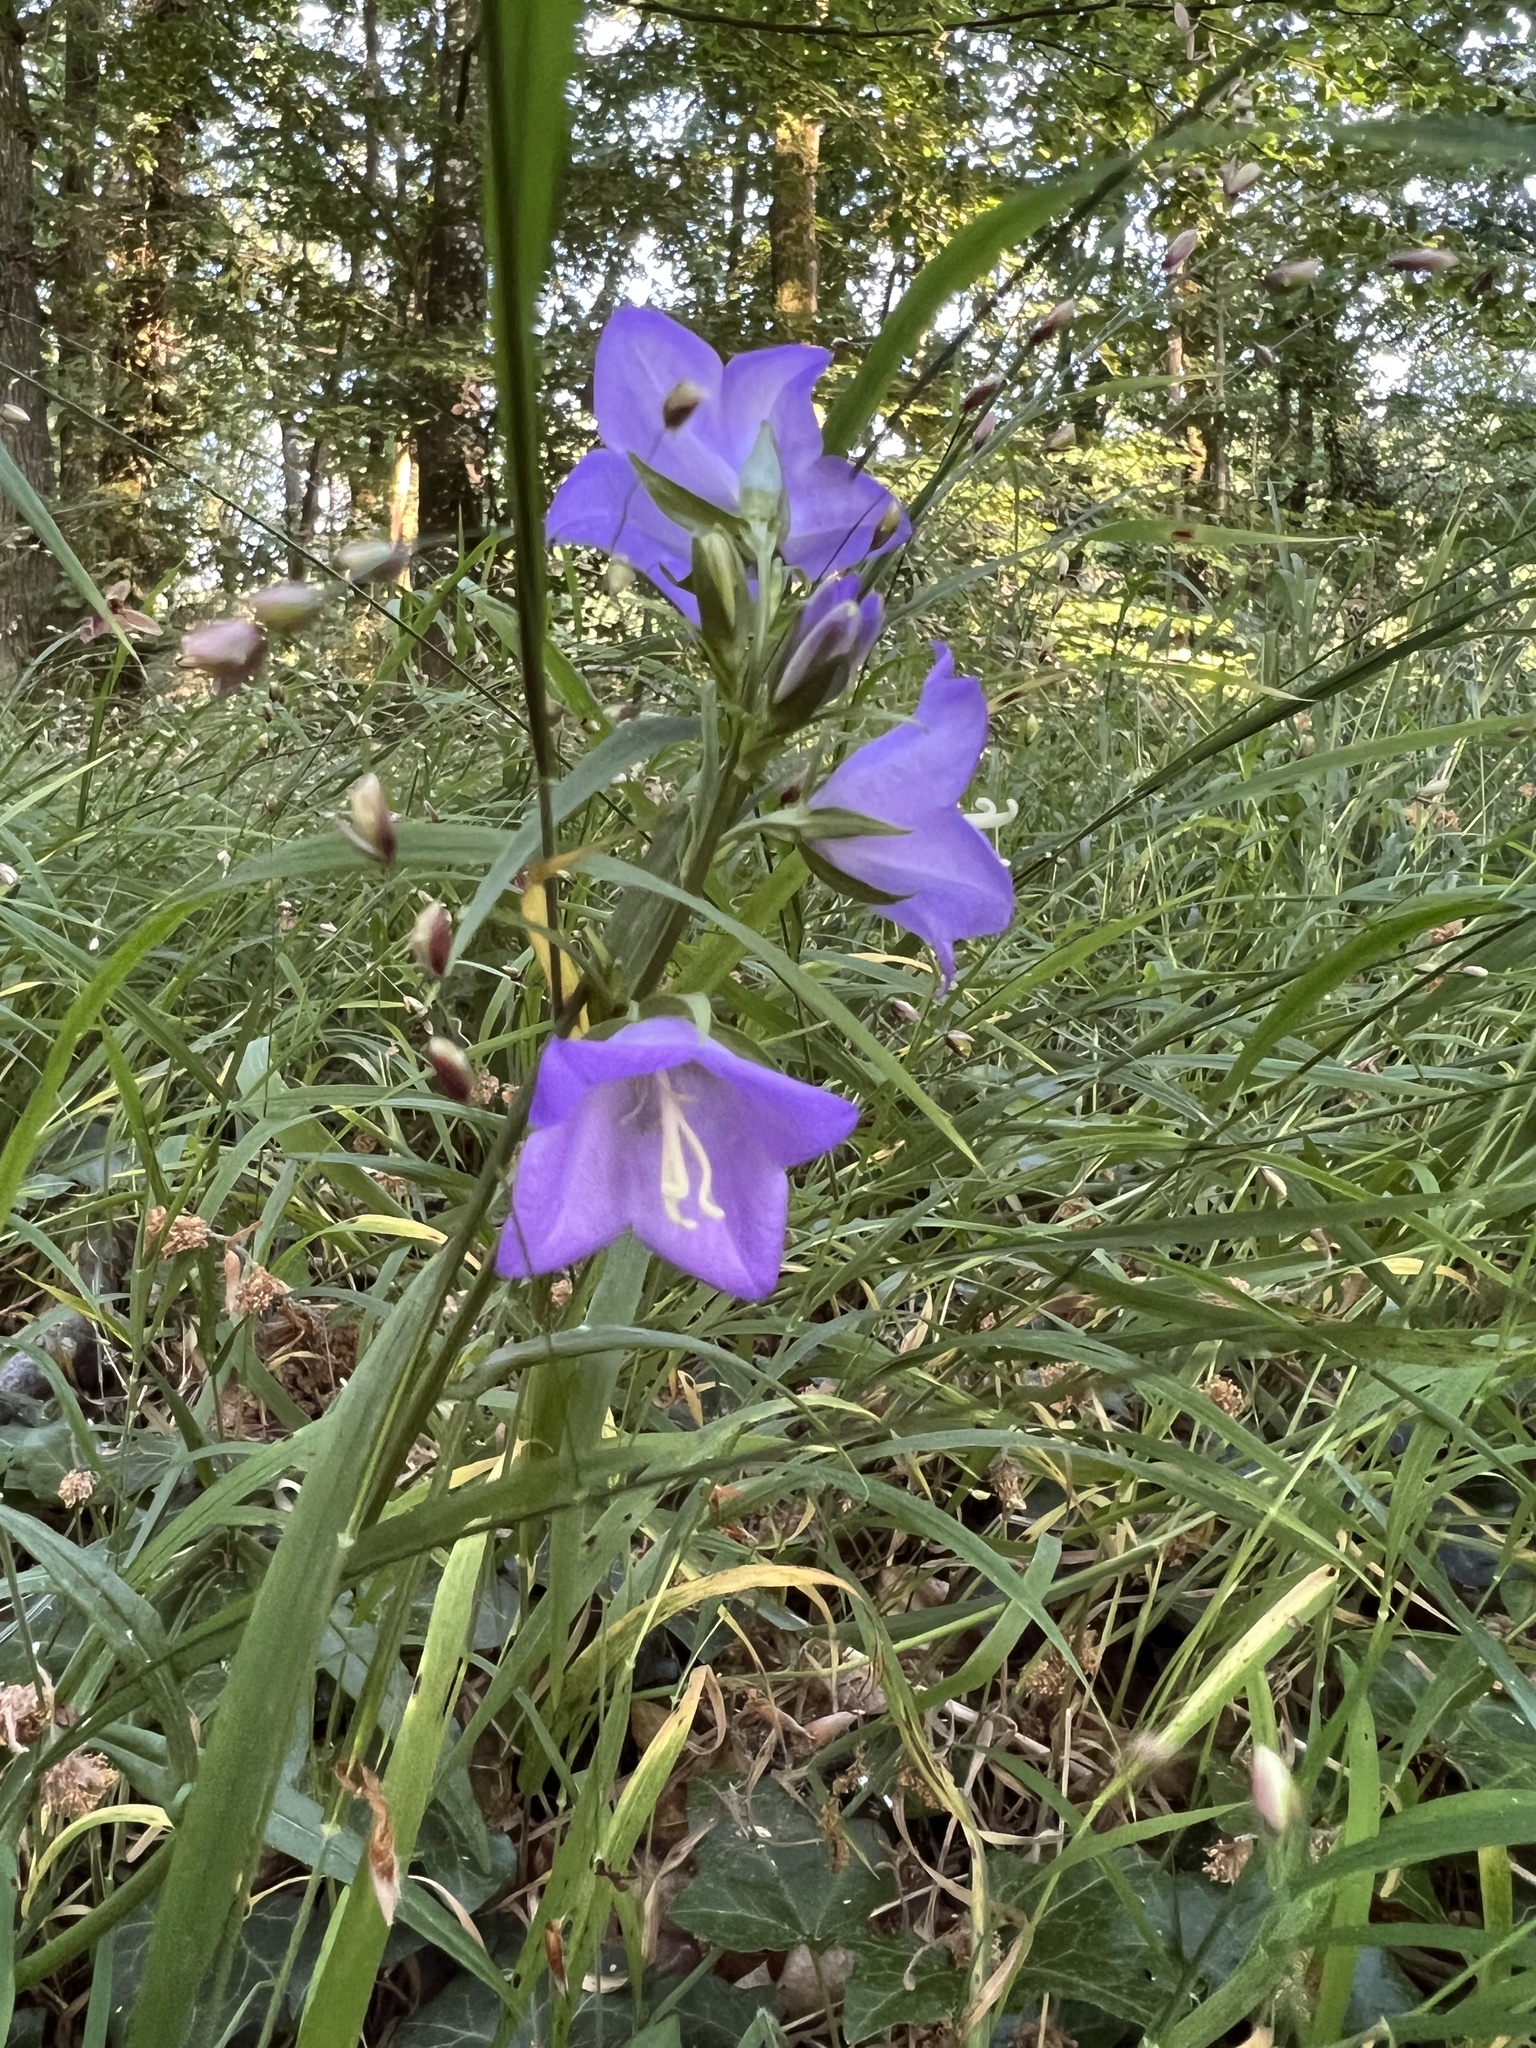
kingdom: Plantae
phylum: Tracheophyta
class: Magnoliopsida
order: Asterales
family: Campanulaceae
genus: Campanula
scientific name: Campanula persicifolia
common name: Peach-leaved bellflower
